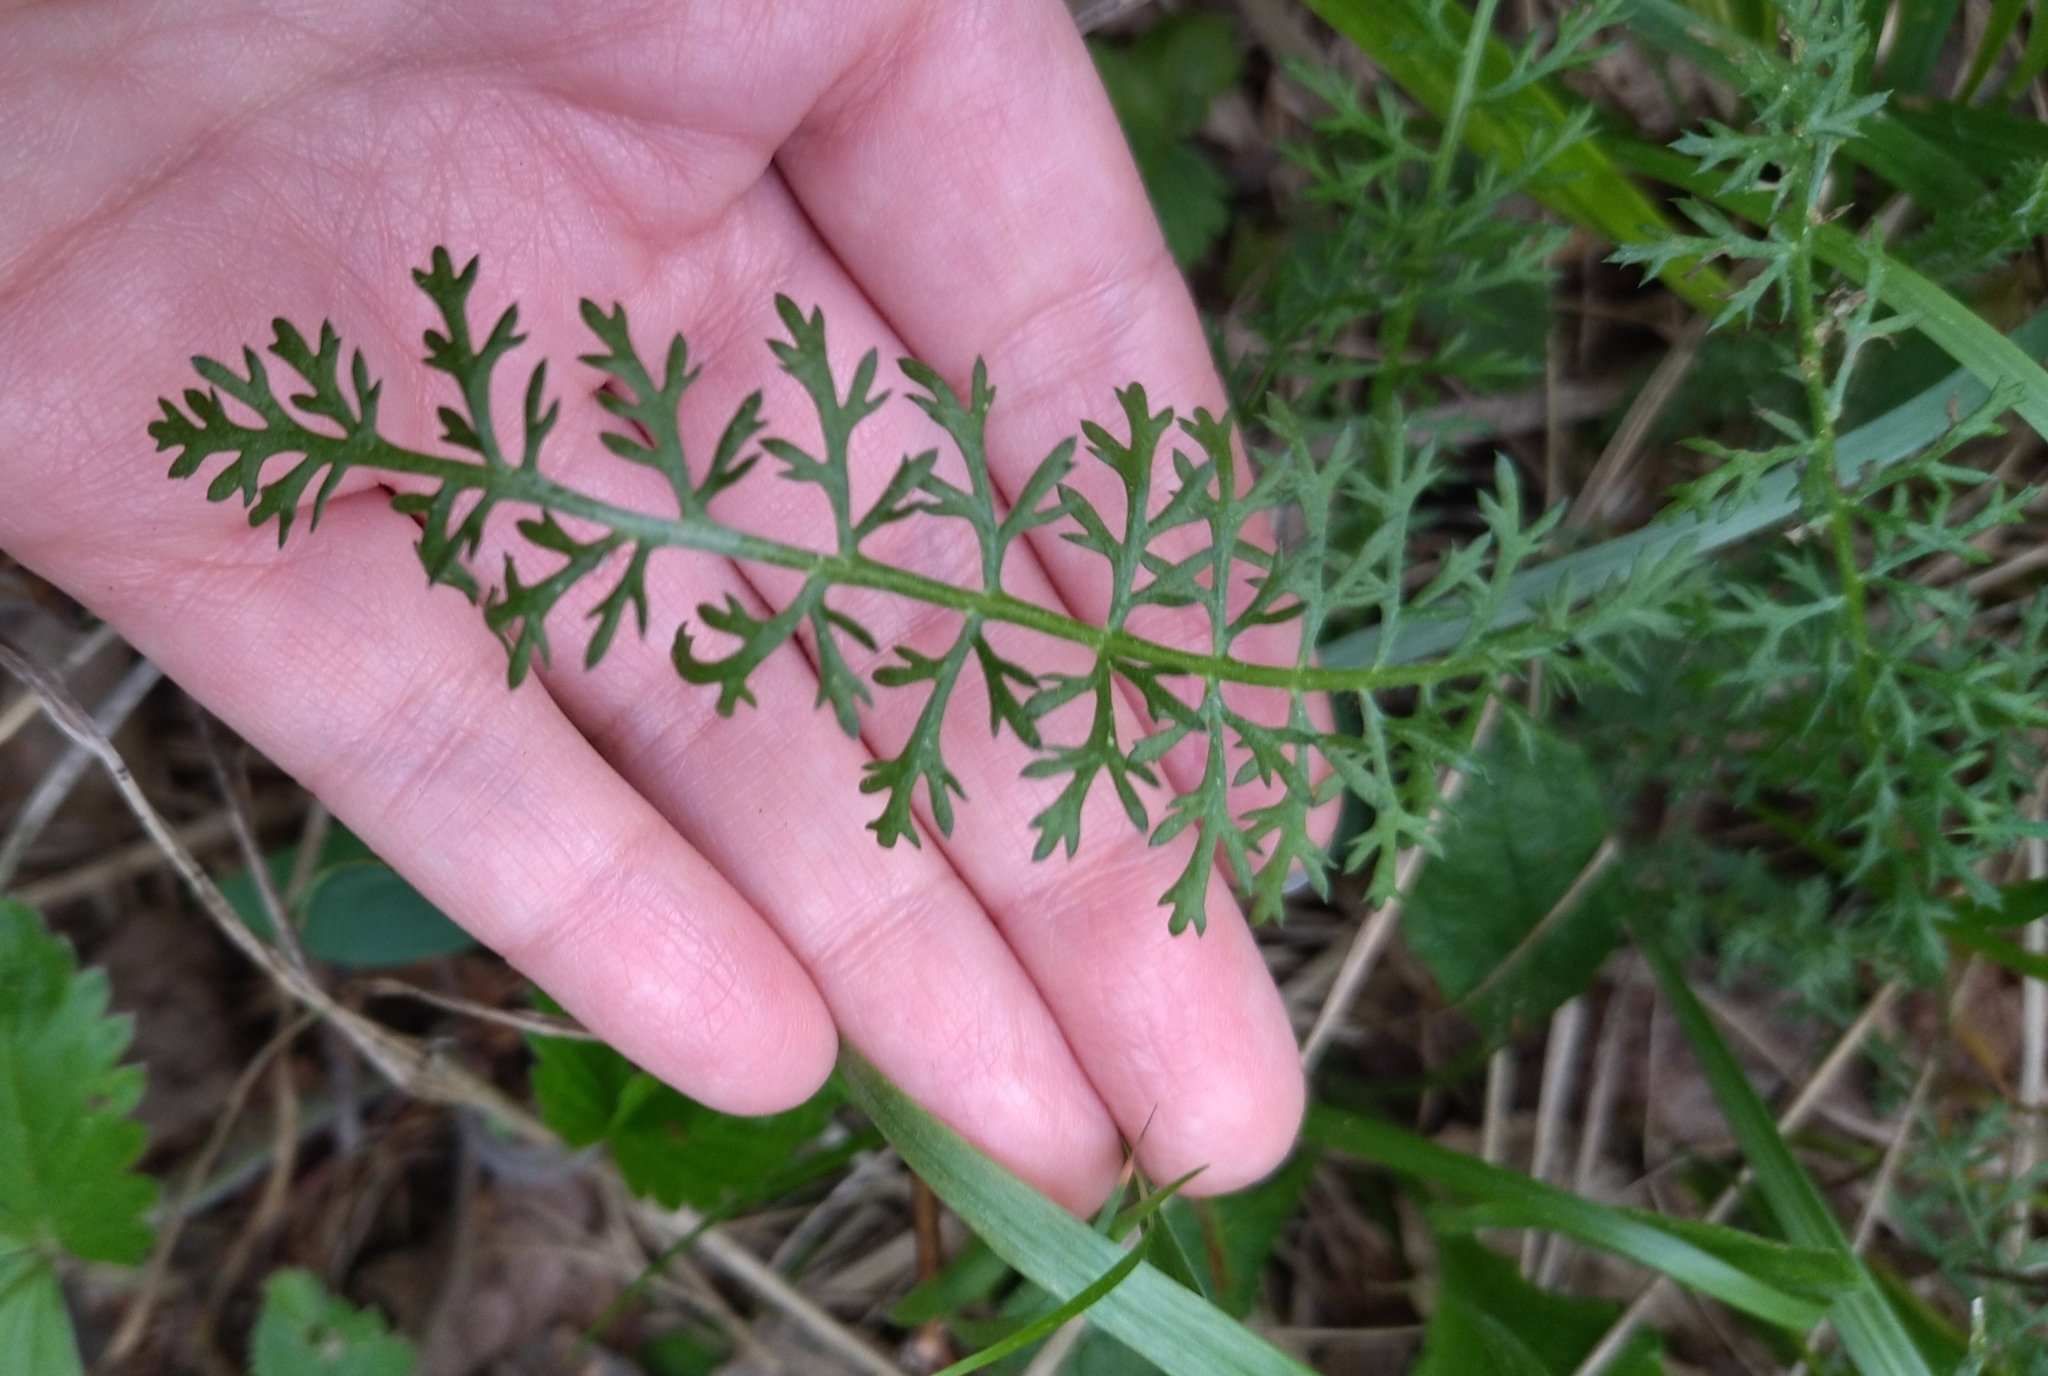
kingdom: Plantae
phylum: Tracheophyta
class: Magnoliopsida
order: Asterales
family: Asteraceae
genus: Achillea
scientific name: Achillea millefolium
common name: Yarrow
